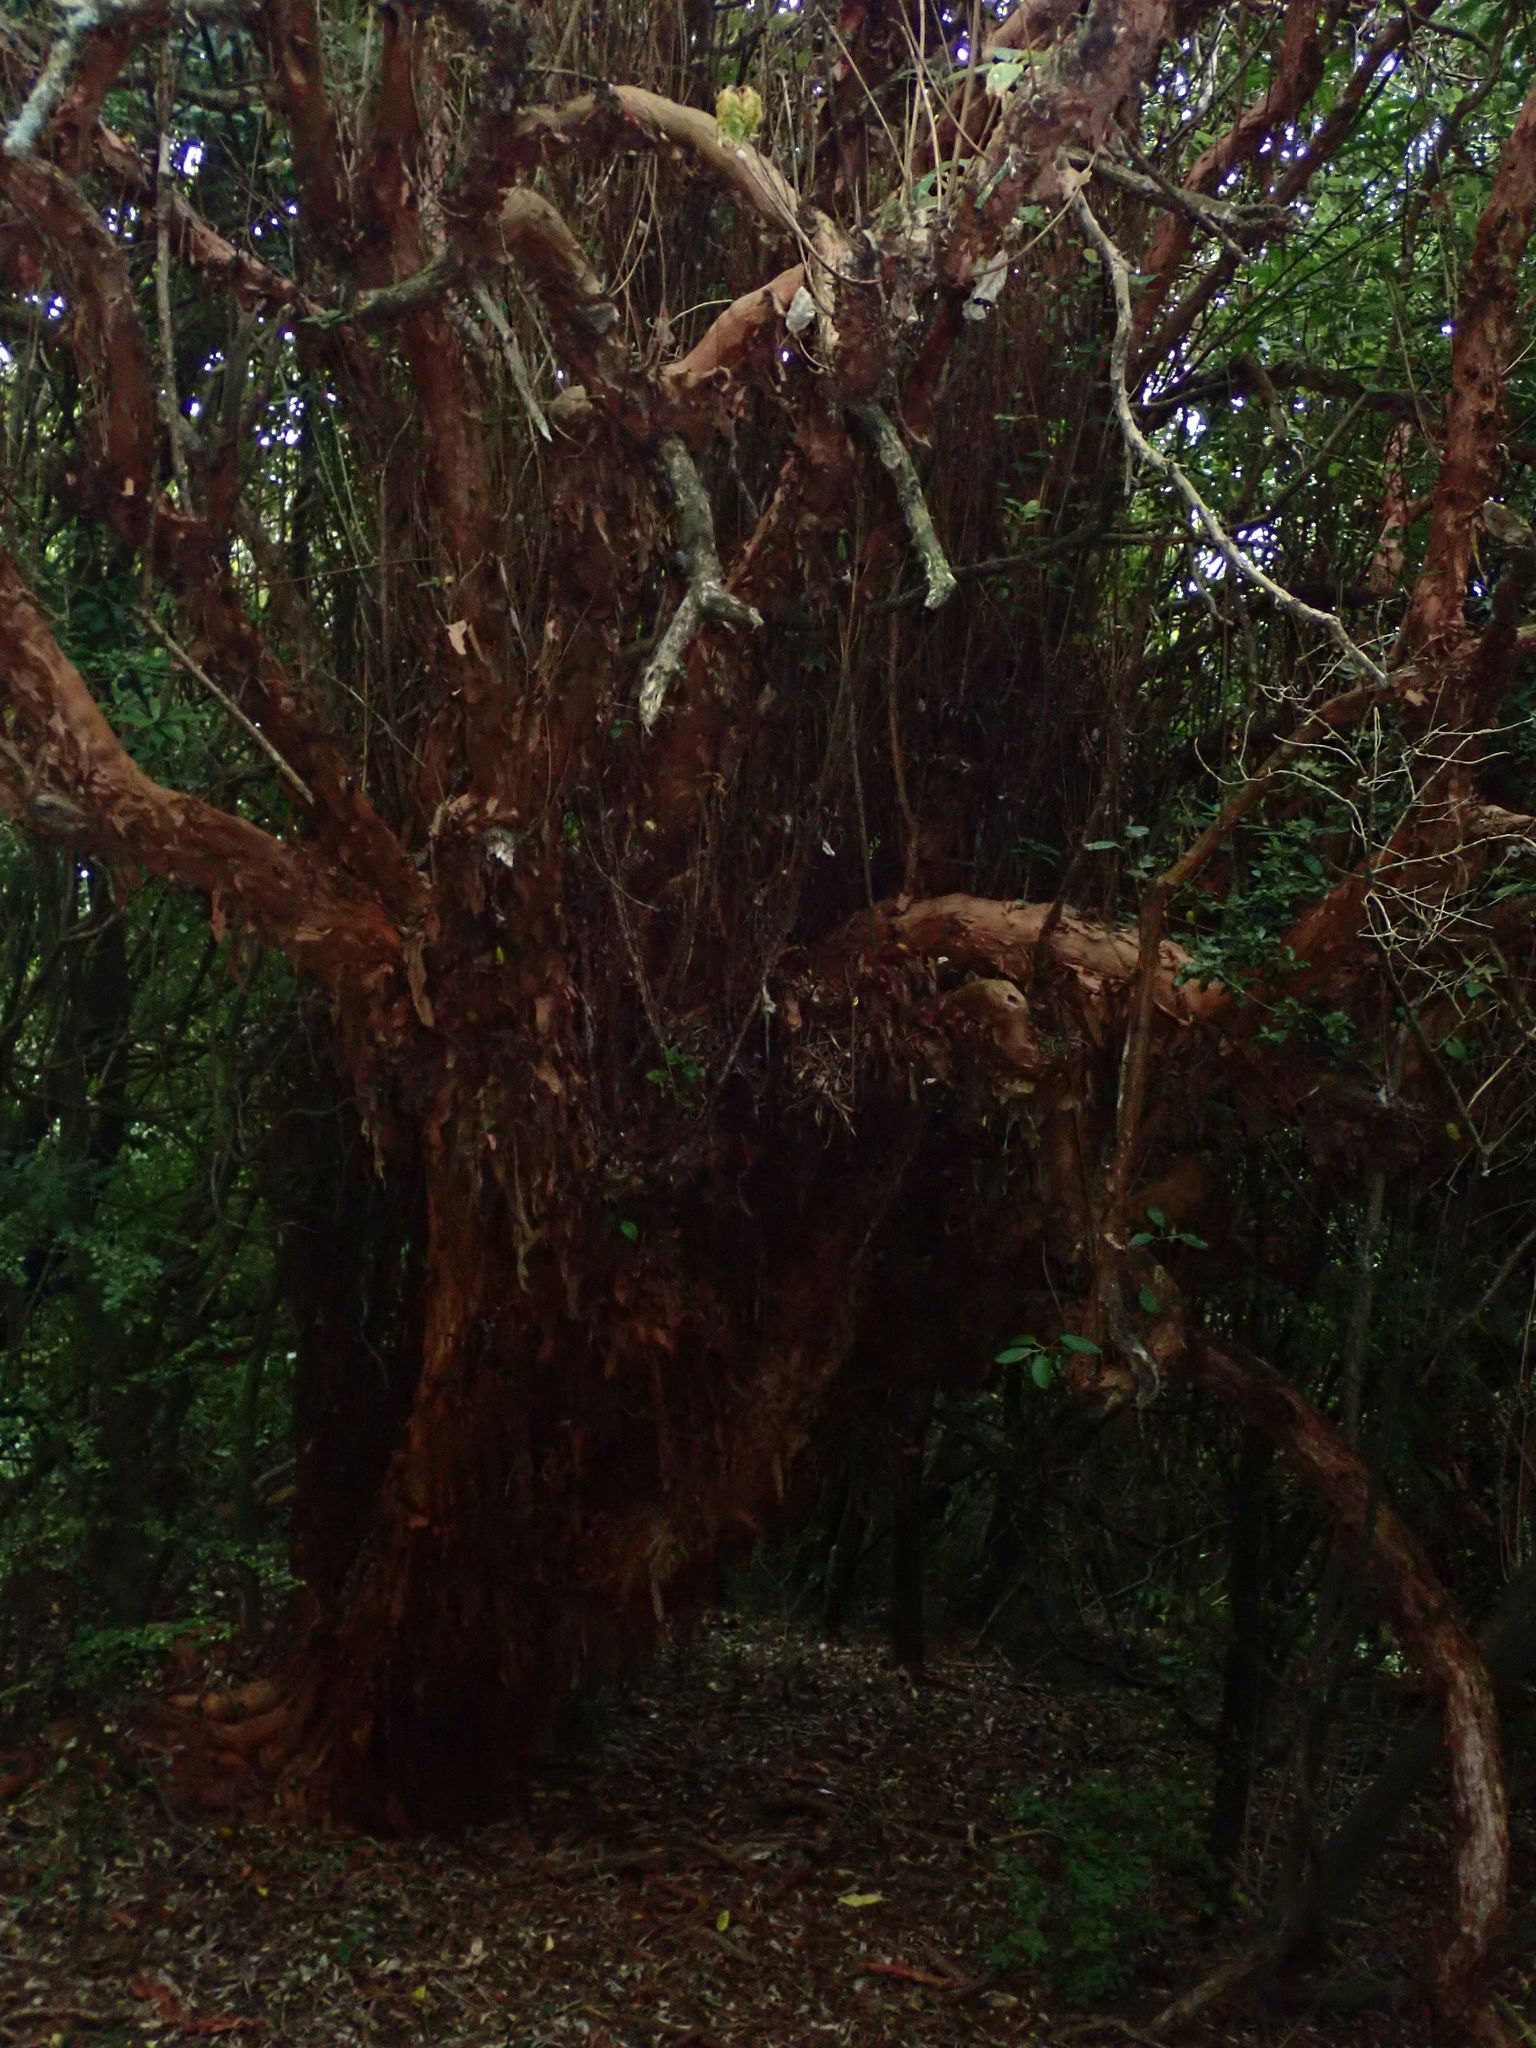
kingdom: Plantae
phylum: Tracheophyta
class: Magnoliopsida
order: Myrtales
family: Onagraceae
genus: Fuchsia
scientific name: Fuchsia excorticata
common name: Tree fuchsia
